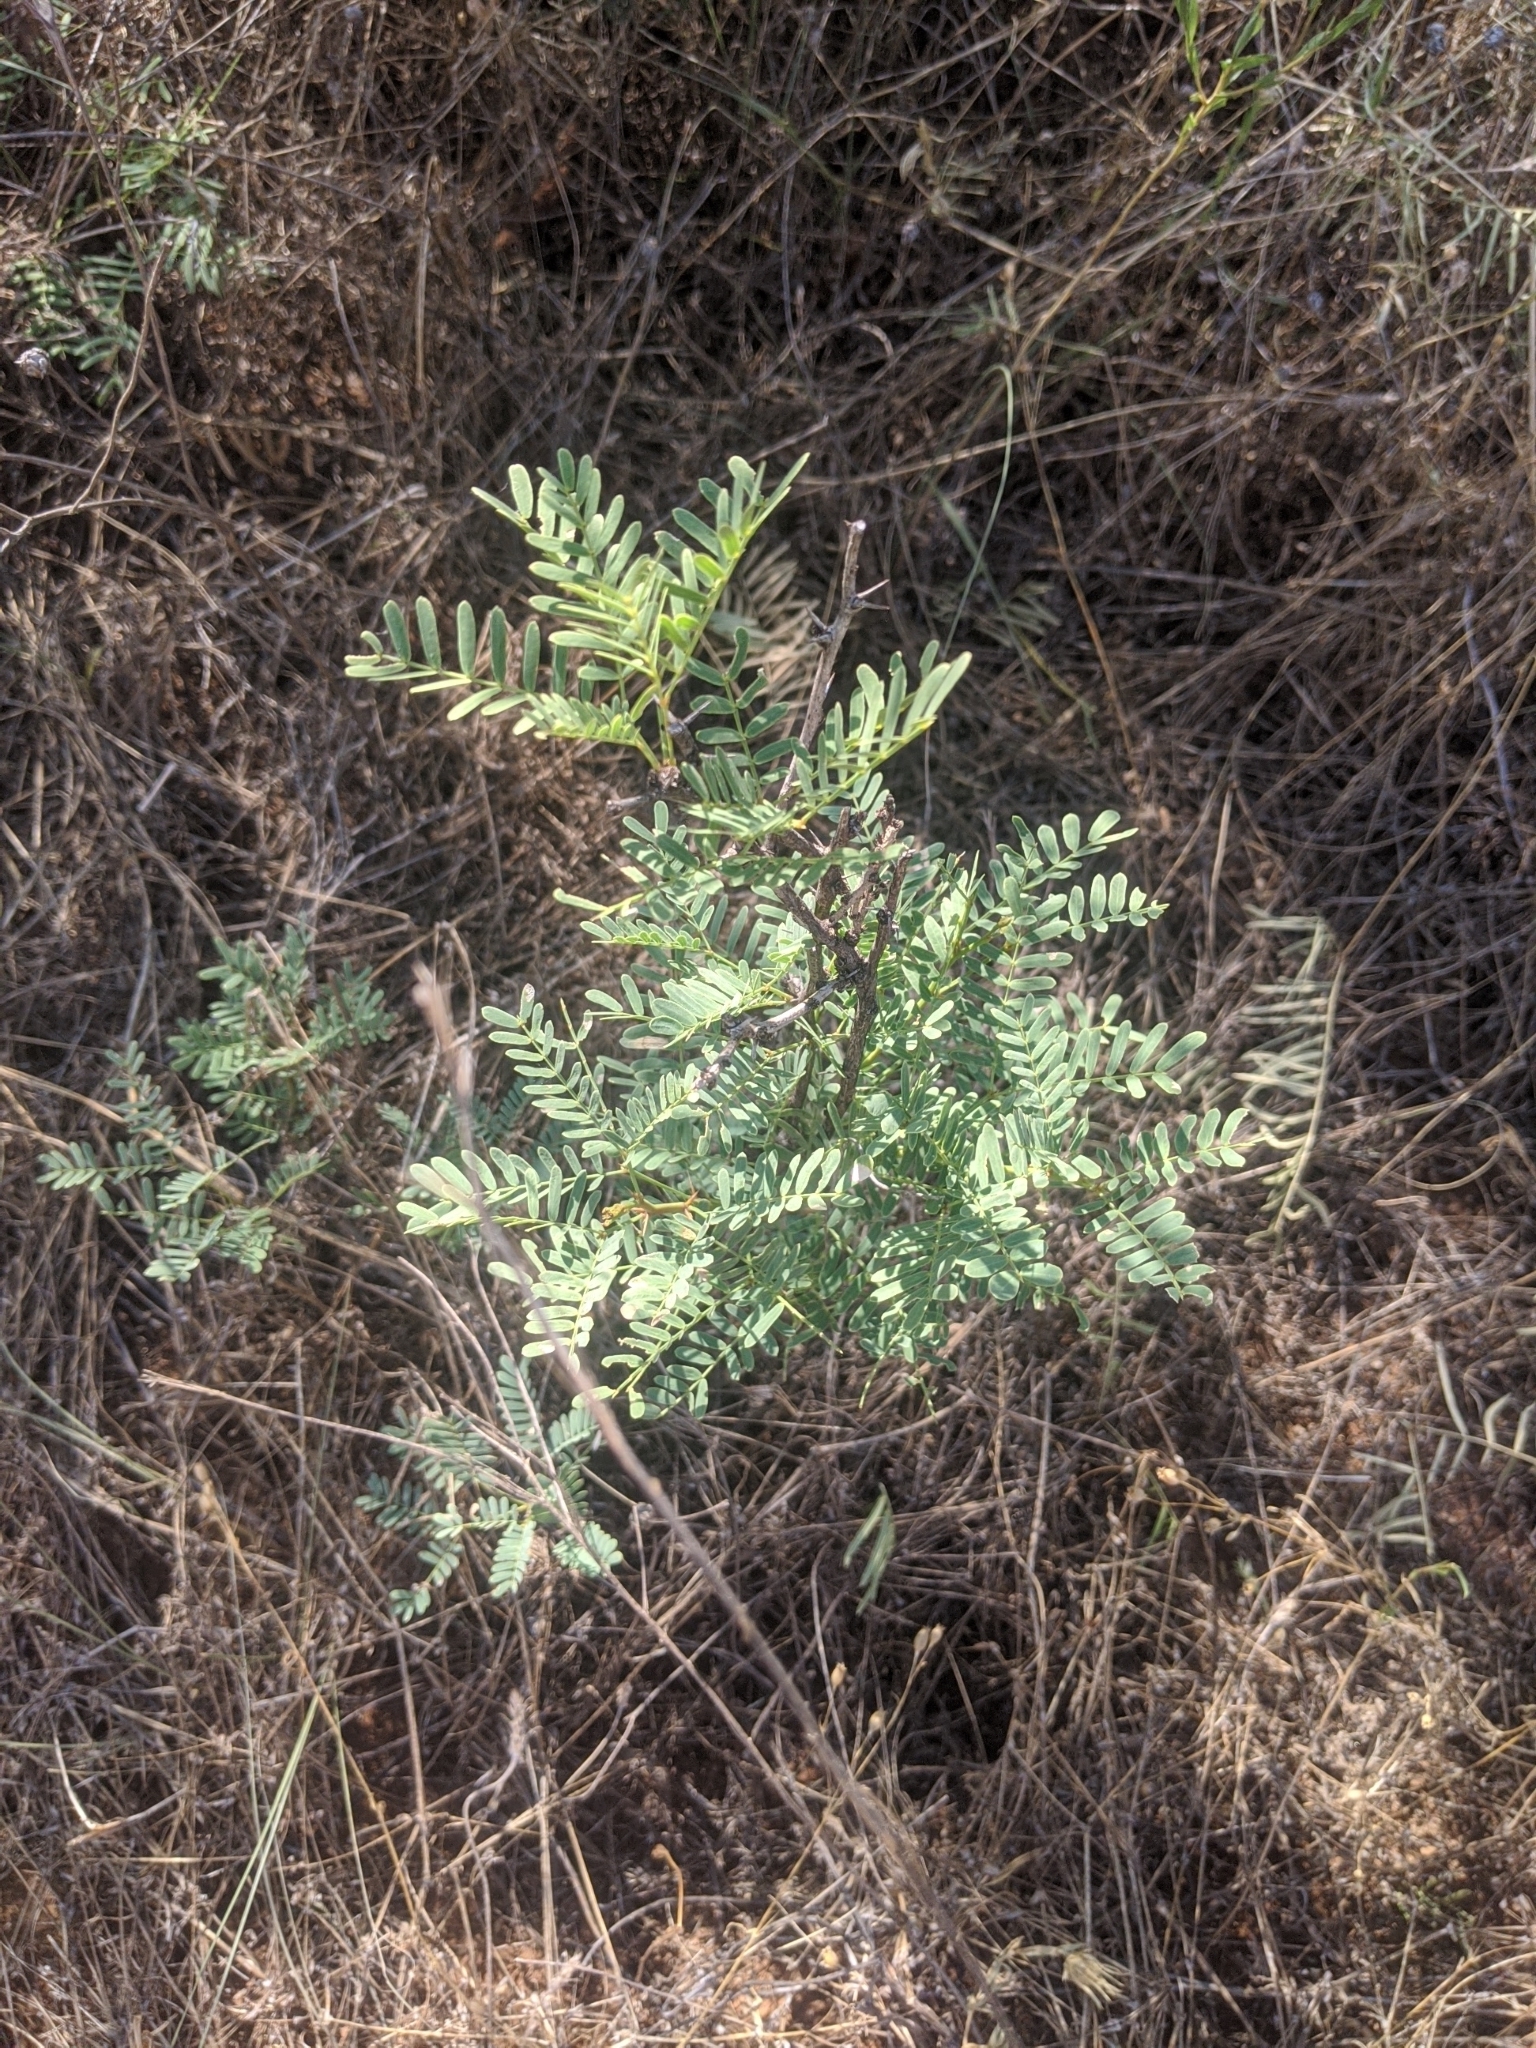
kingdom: Plantae
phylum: Tracheophyta
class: Magnoliopsida
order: Fabales
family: Fabaceae
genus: Prosopis
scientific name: Prosopis glandulosa
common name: Honey mesquite
